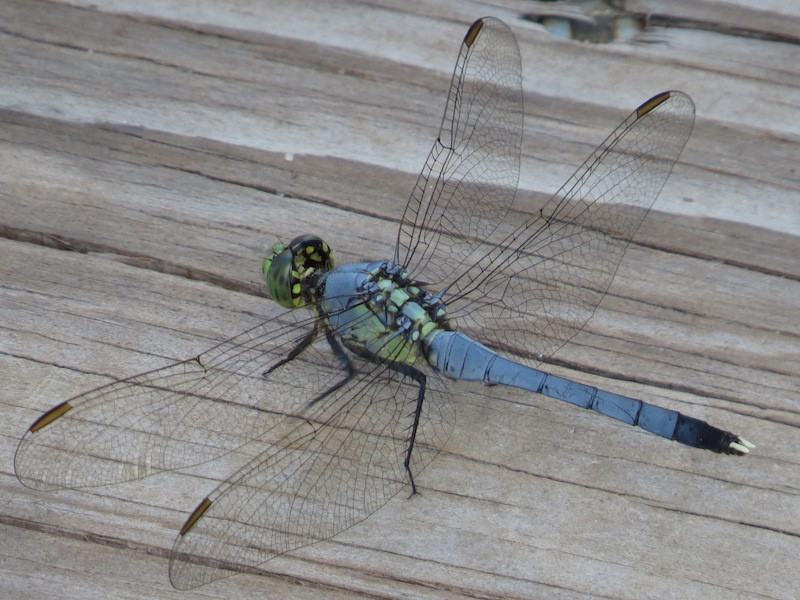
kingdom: Animalia
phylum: Arthropoda
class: Insecta
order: Odonata
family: Libellulidae
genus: Erythemis
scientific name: Erythemis simplicicollis
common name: Eastern pondhawk
